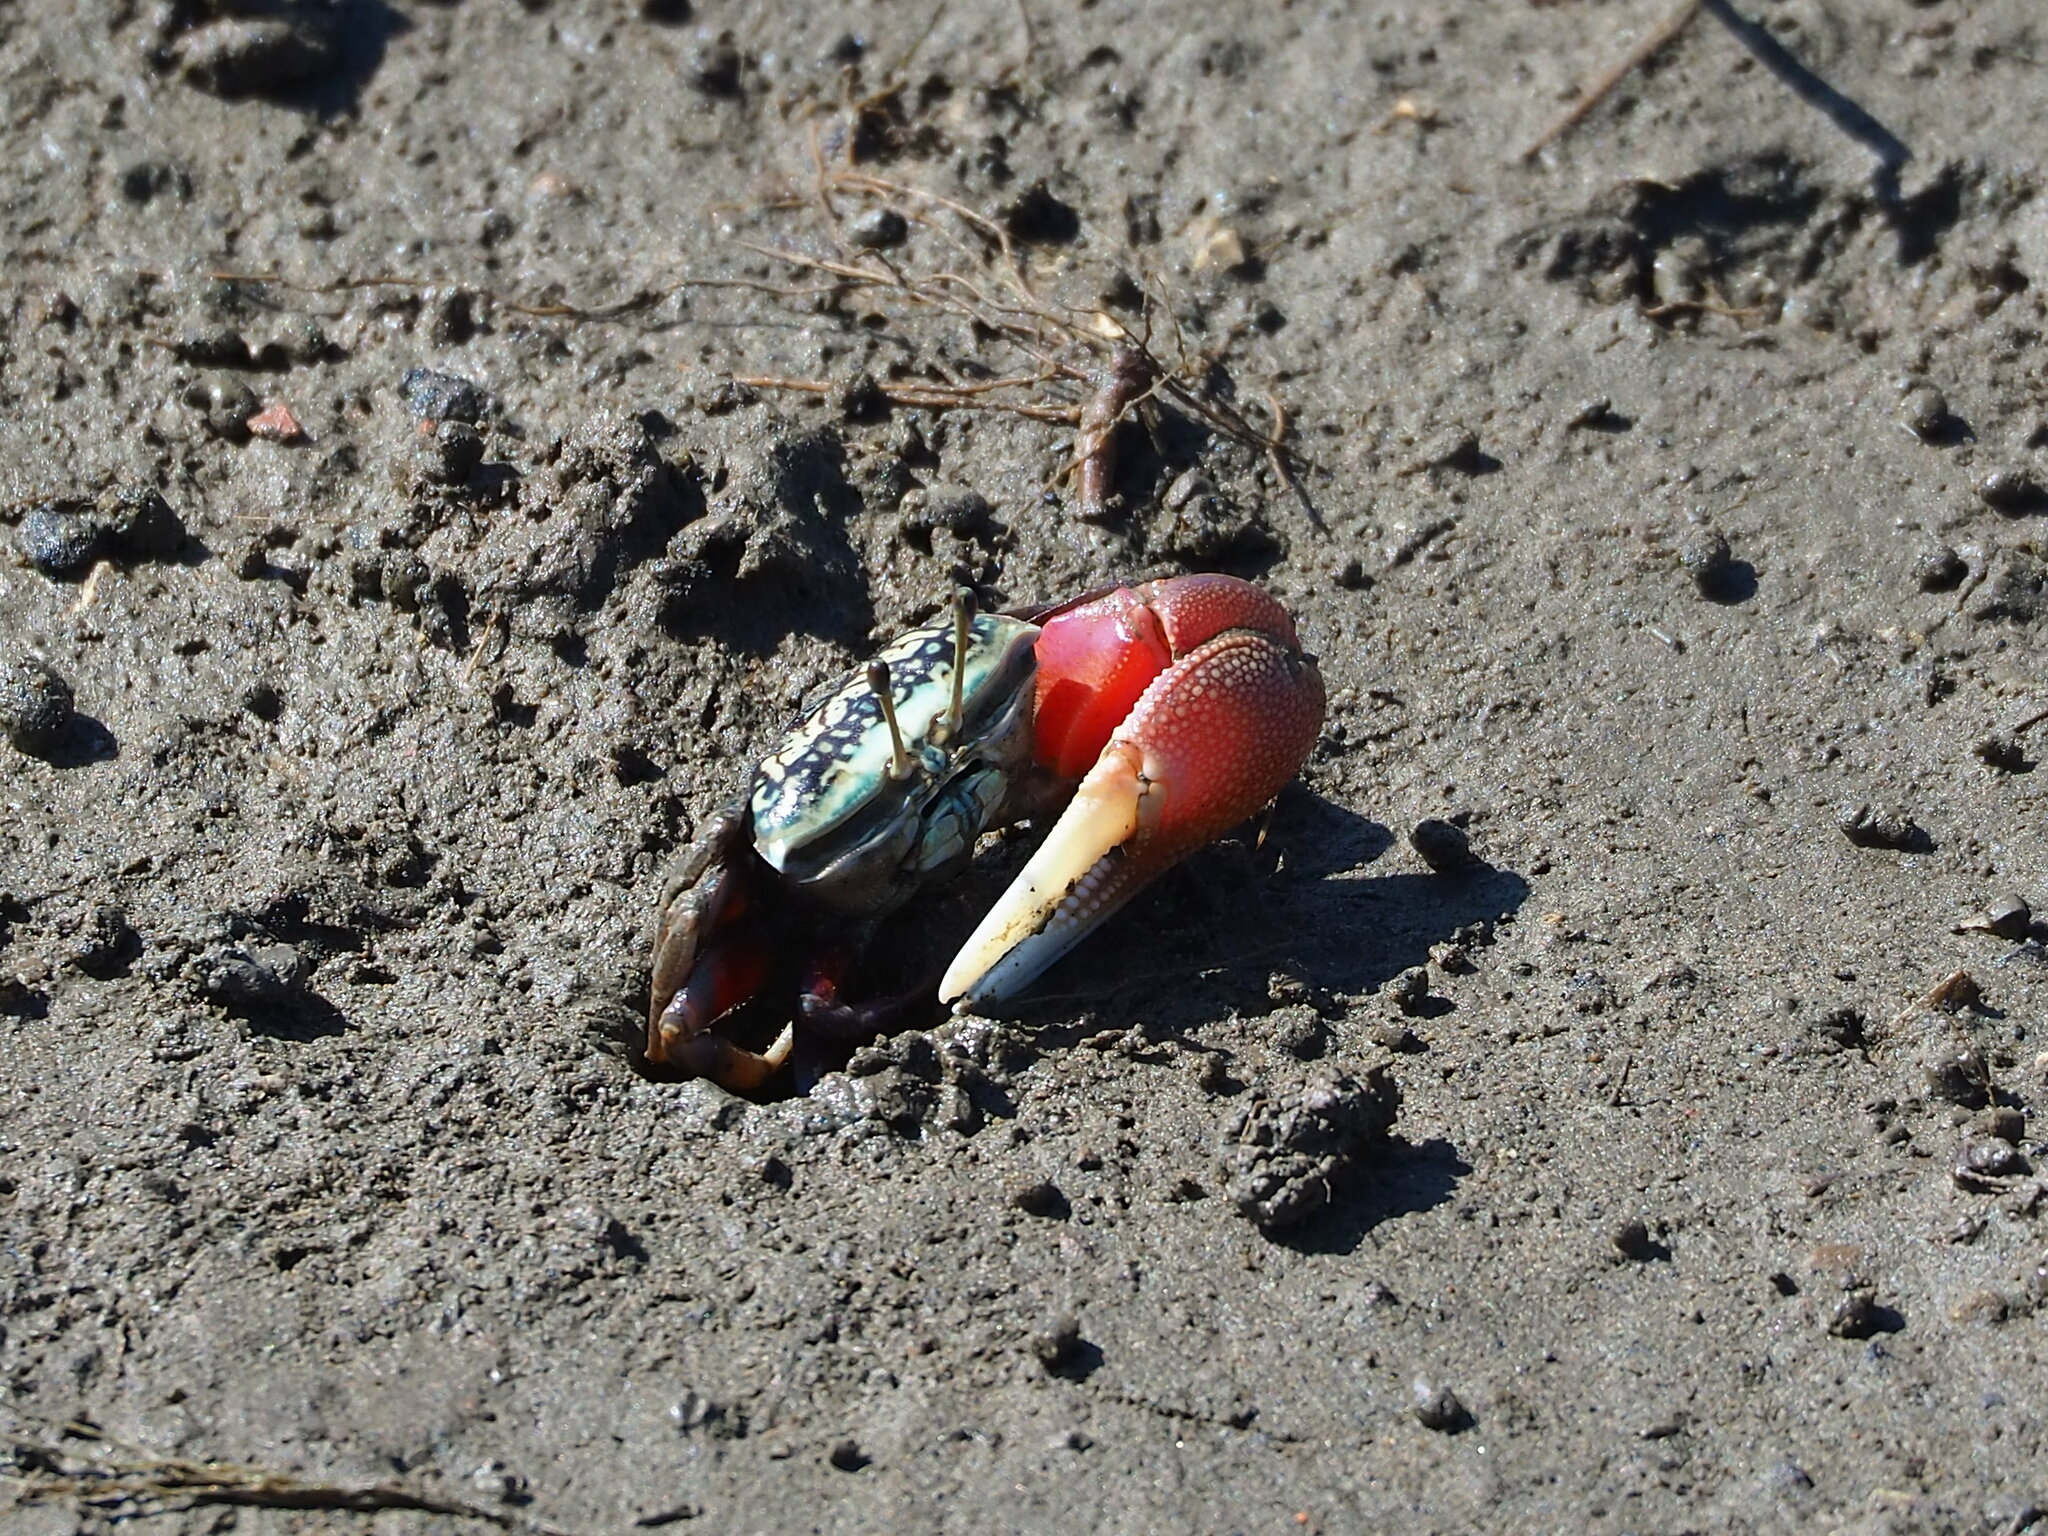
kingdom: Animalia
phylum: Arthropoda
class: Malacostraca
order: Decapoda
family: Ocypodidae
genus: Tubuca
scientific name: Tubuca arcuata
